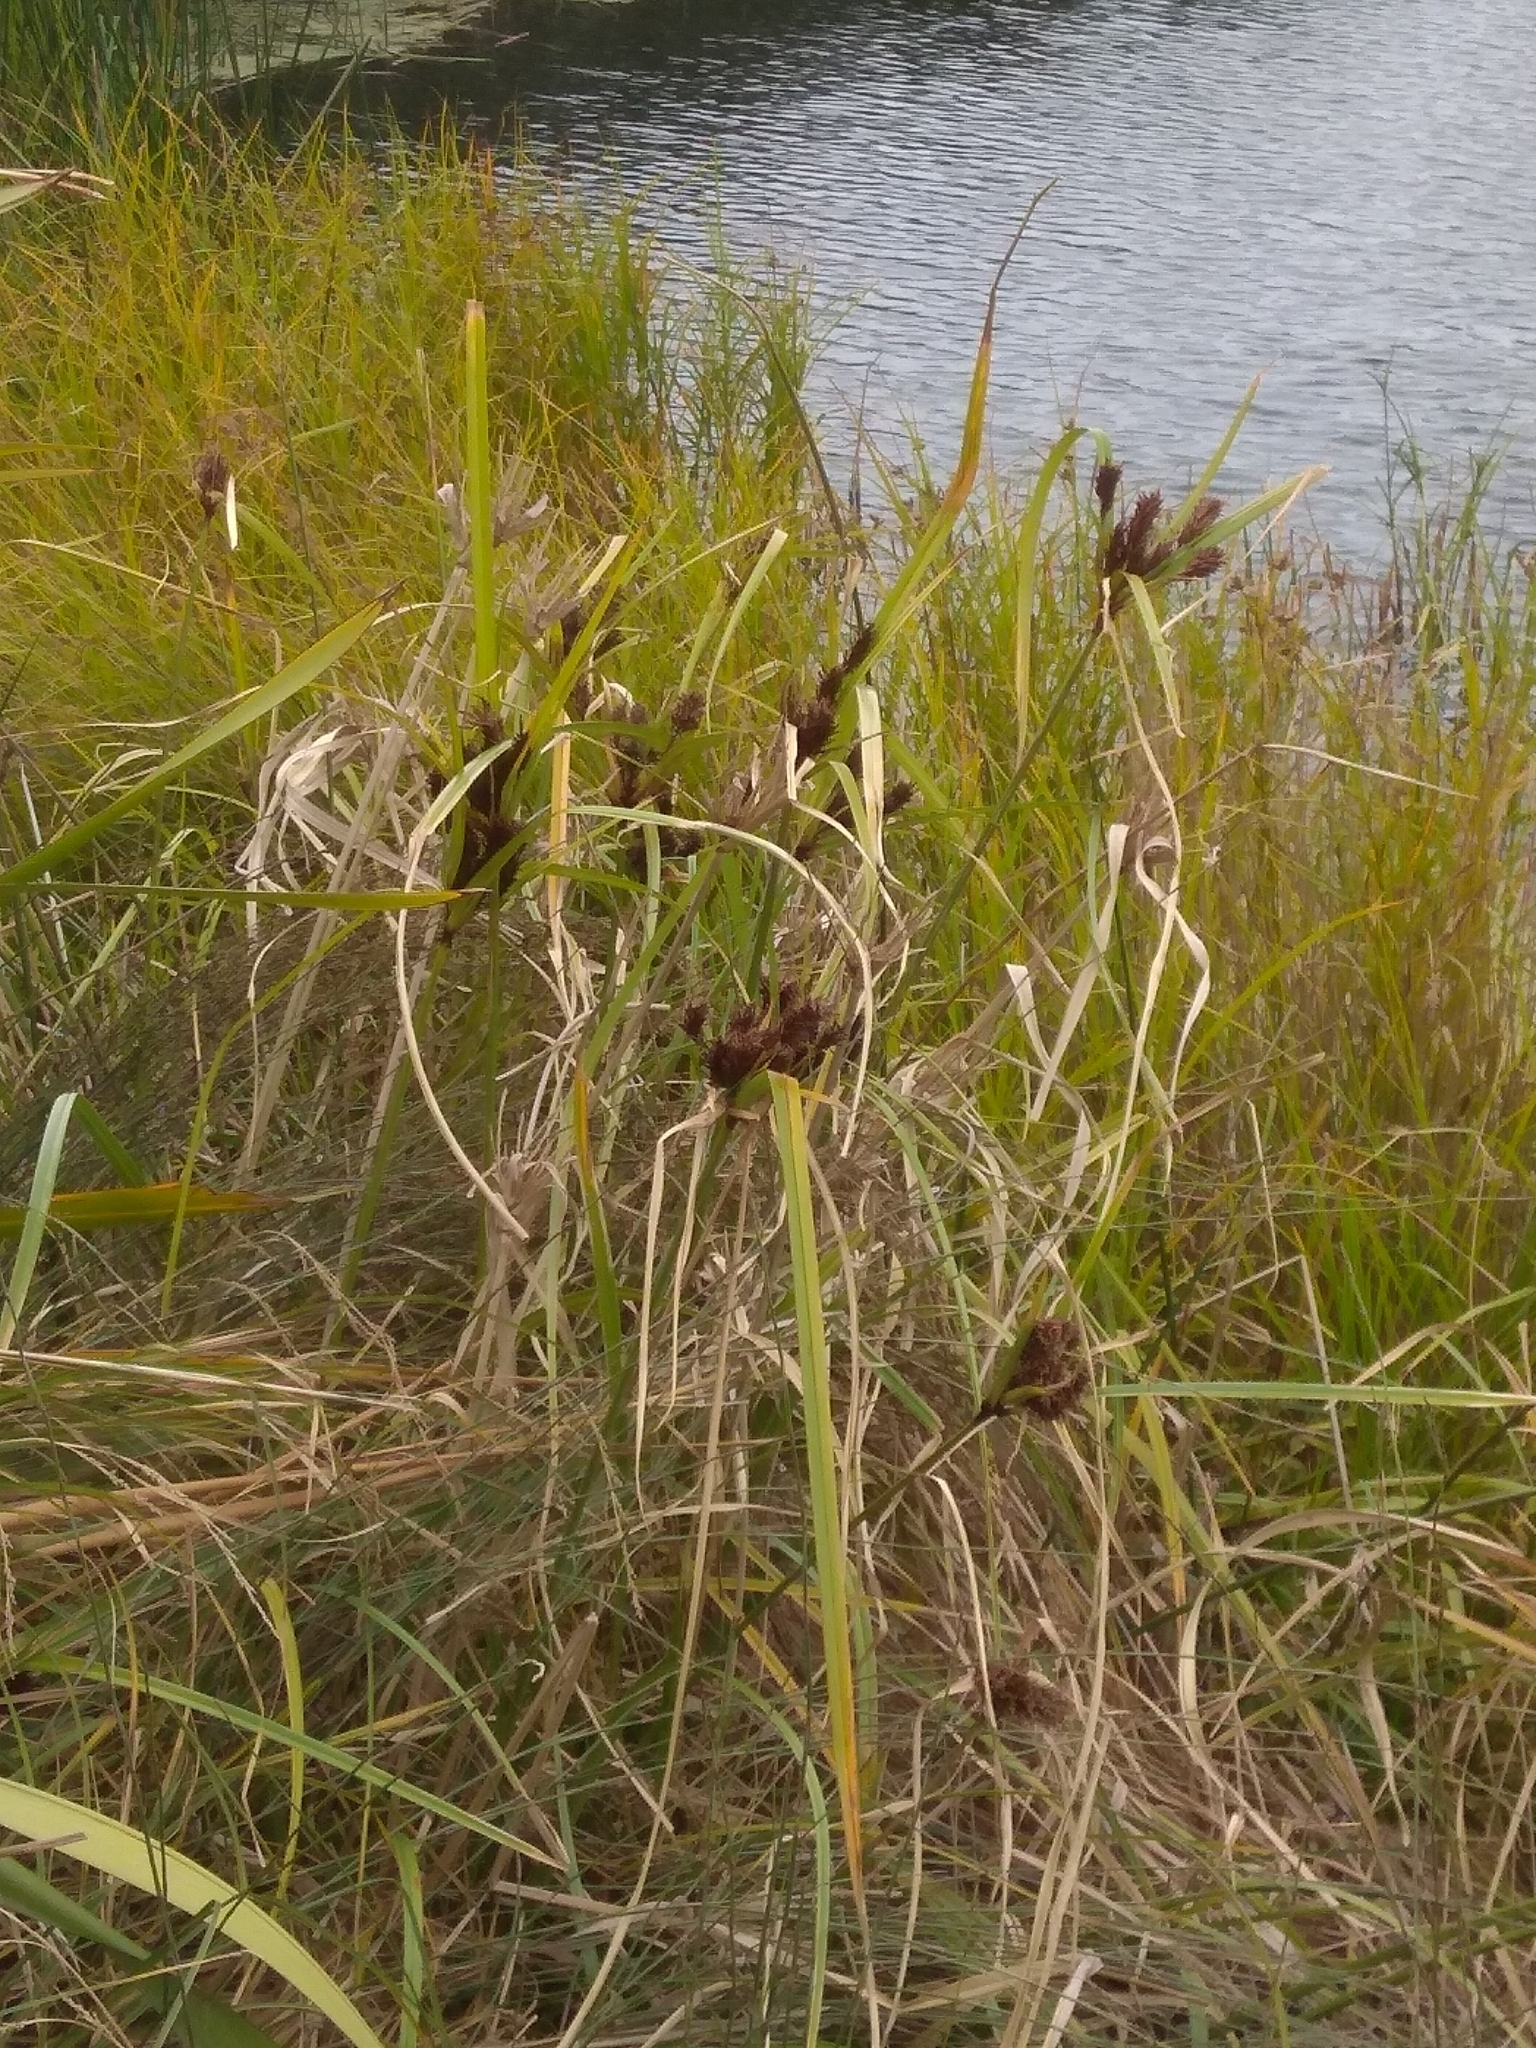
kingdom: Plantae
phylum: Tracheophyta
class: Liliopsida
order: Poales
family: Cyperaceae
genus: Cyperus
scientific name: Cyperus ustulatus
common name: Giant umbrella-sedge
